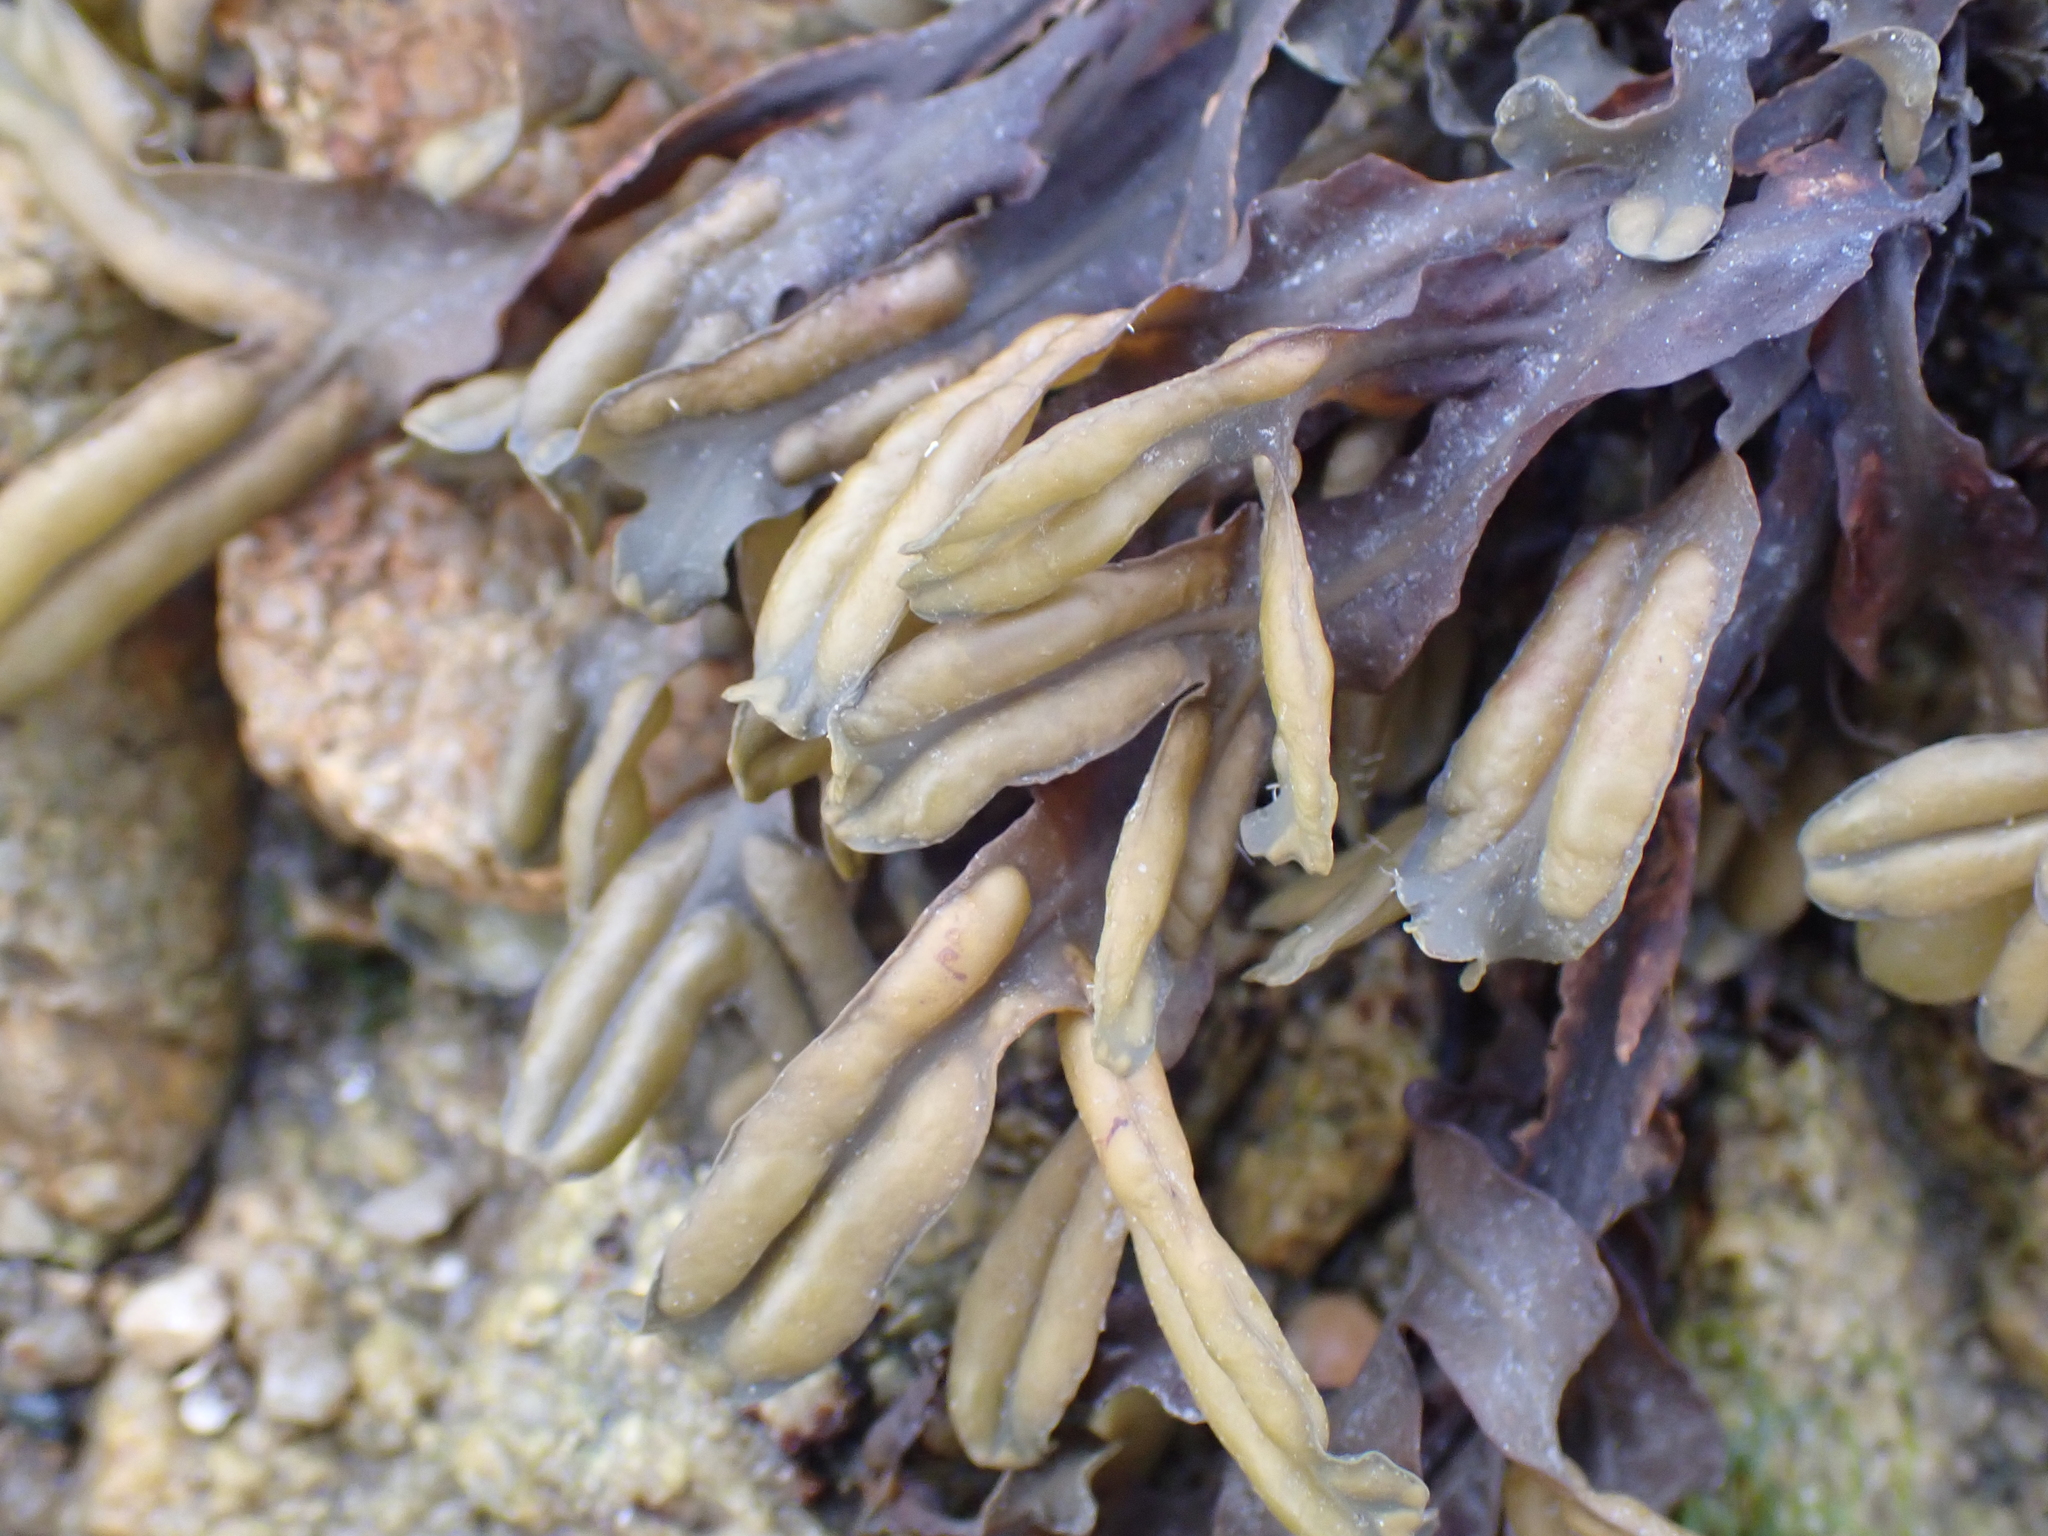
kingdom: Chromista
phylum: Ochrophyta
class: Phaeophyceae
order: Fucales
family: Fucaceae
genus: Fucus
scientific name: Fucus ceranoides
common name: Horned wrack
